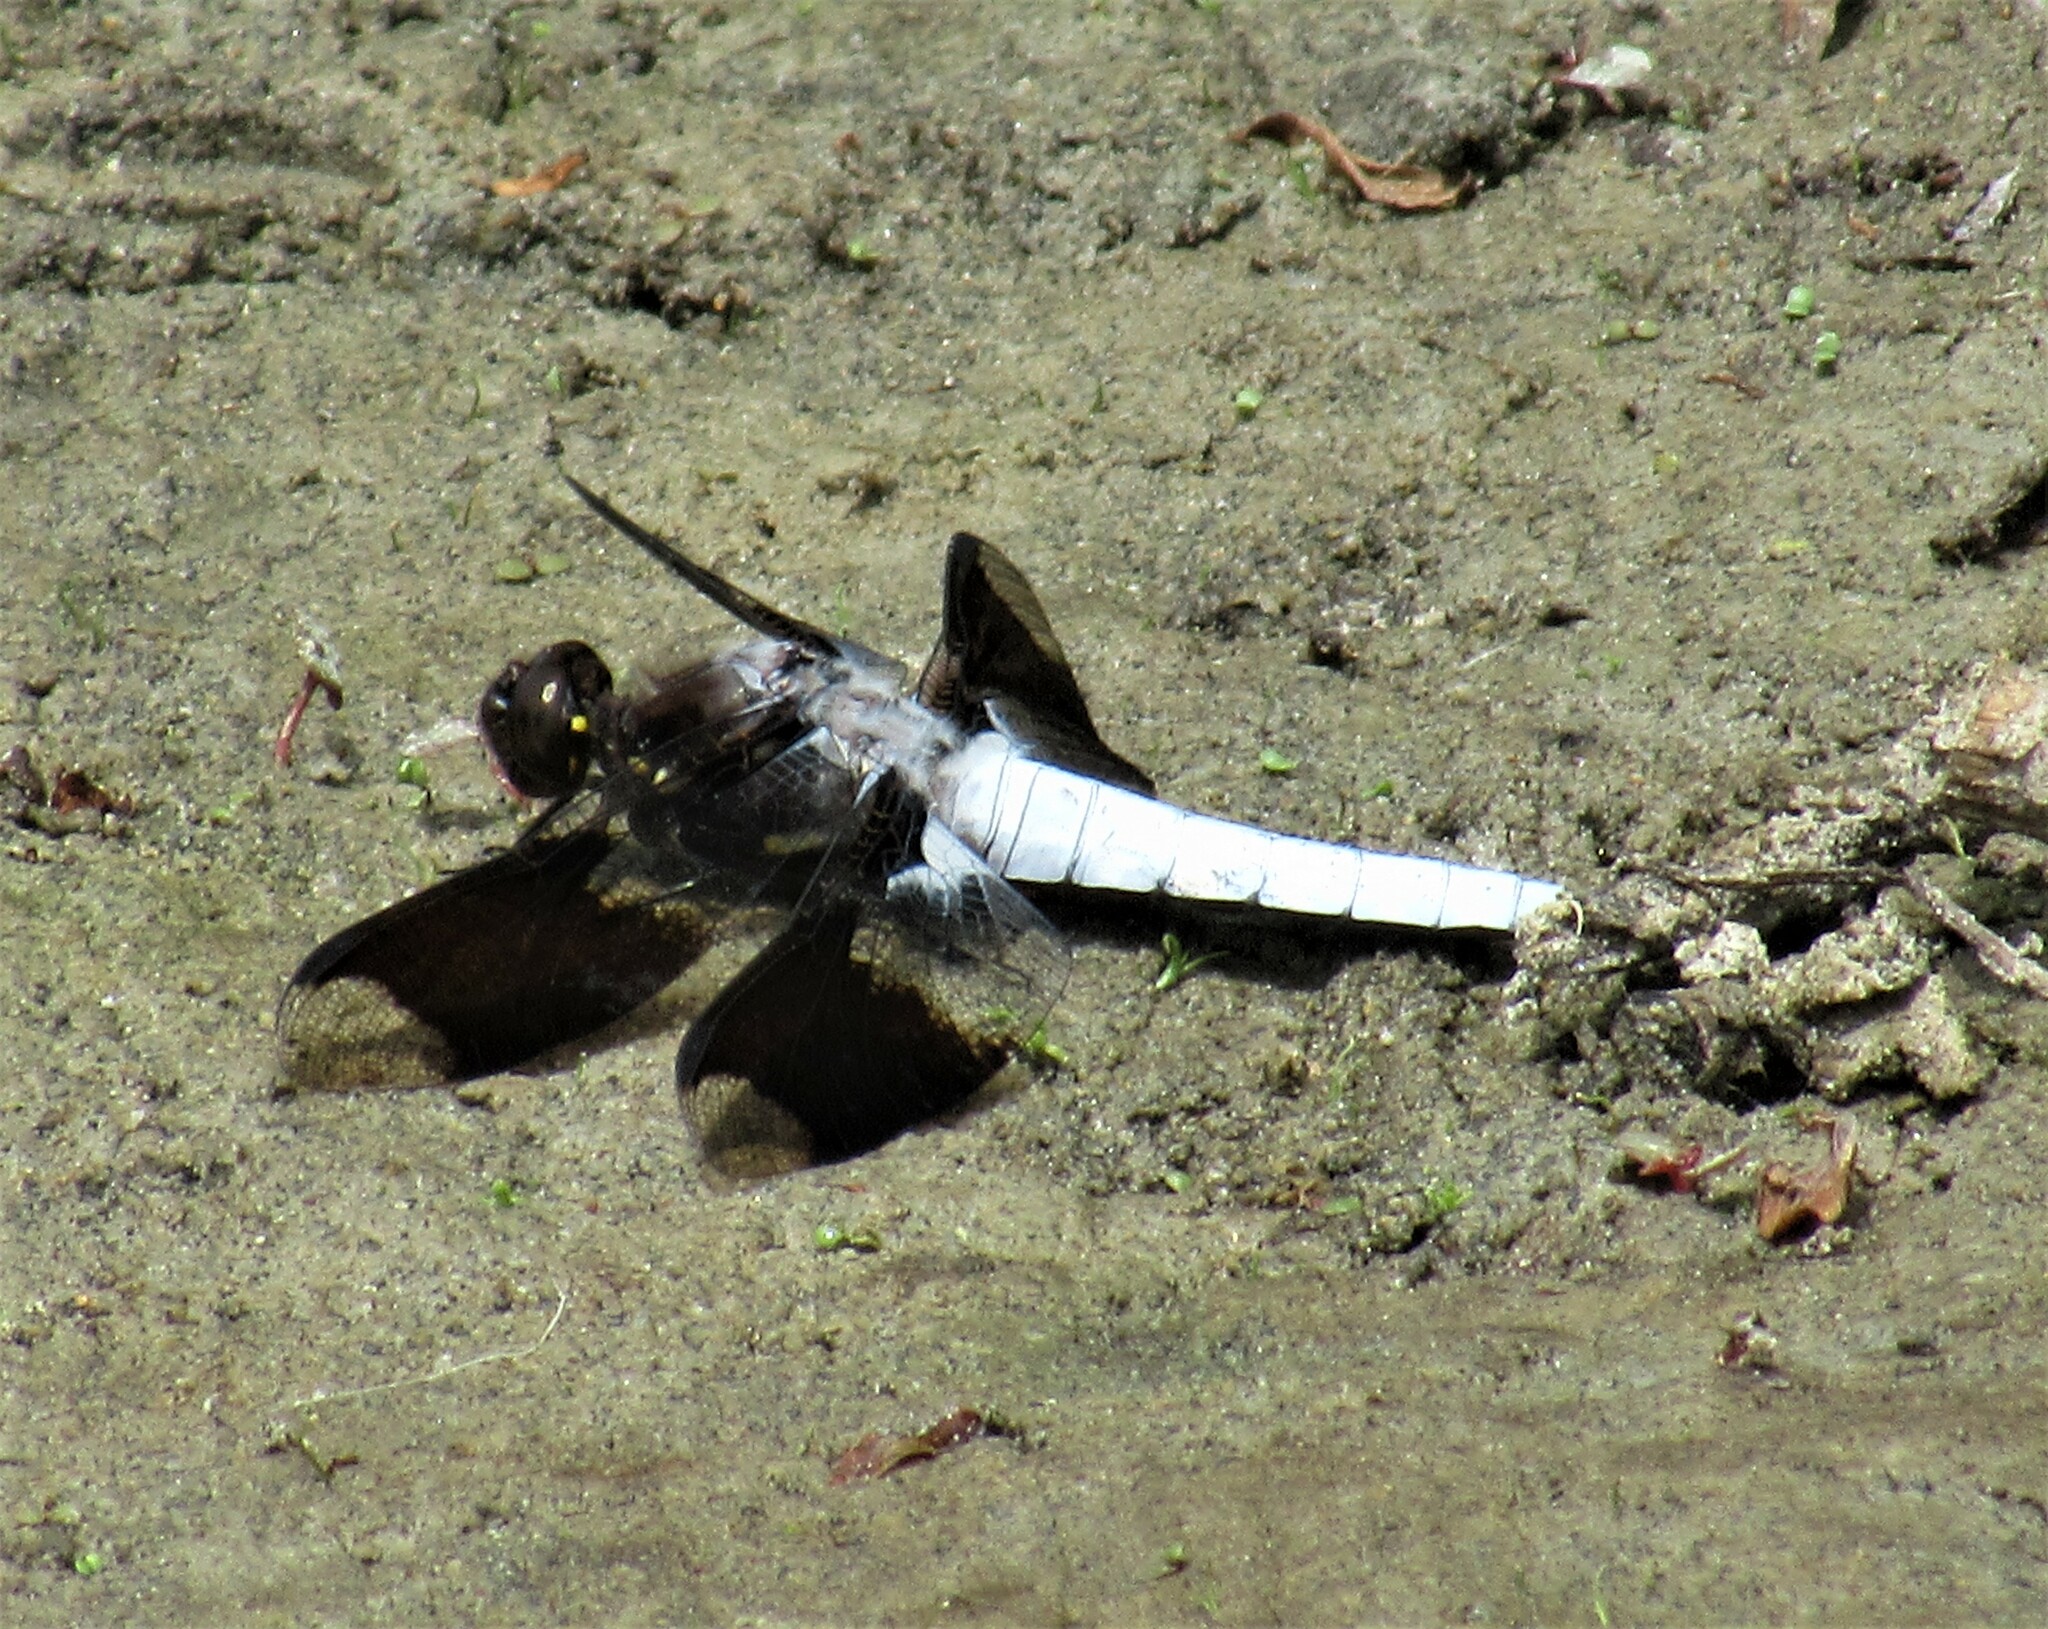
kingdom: Animalia
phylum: Arthropoda
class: Insecta
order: Odonata
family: Libellulidae
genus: Plathemis
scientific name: Plathemis lydia
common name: Common whitetail
